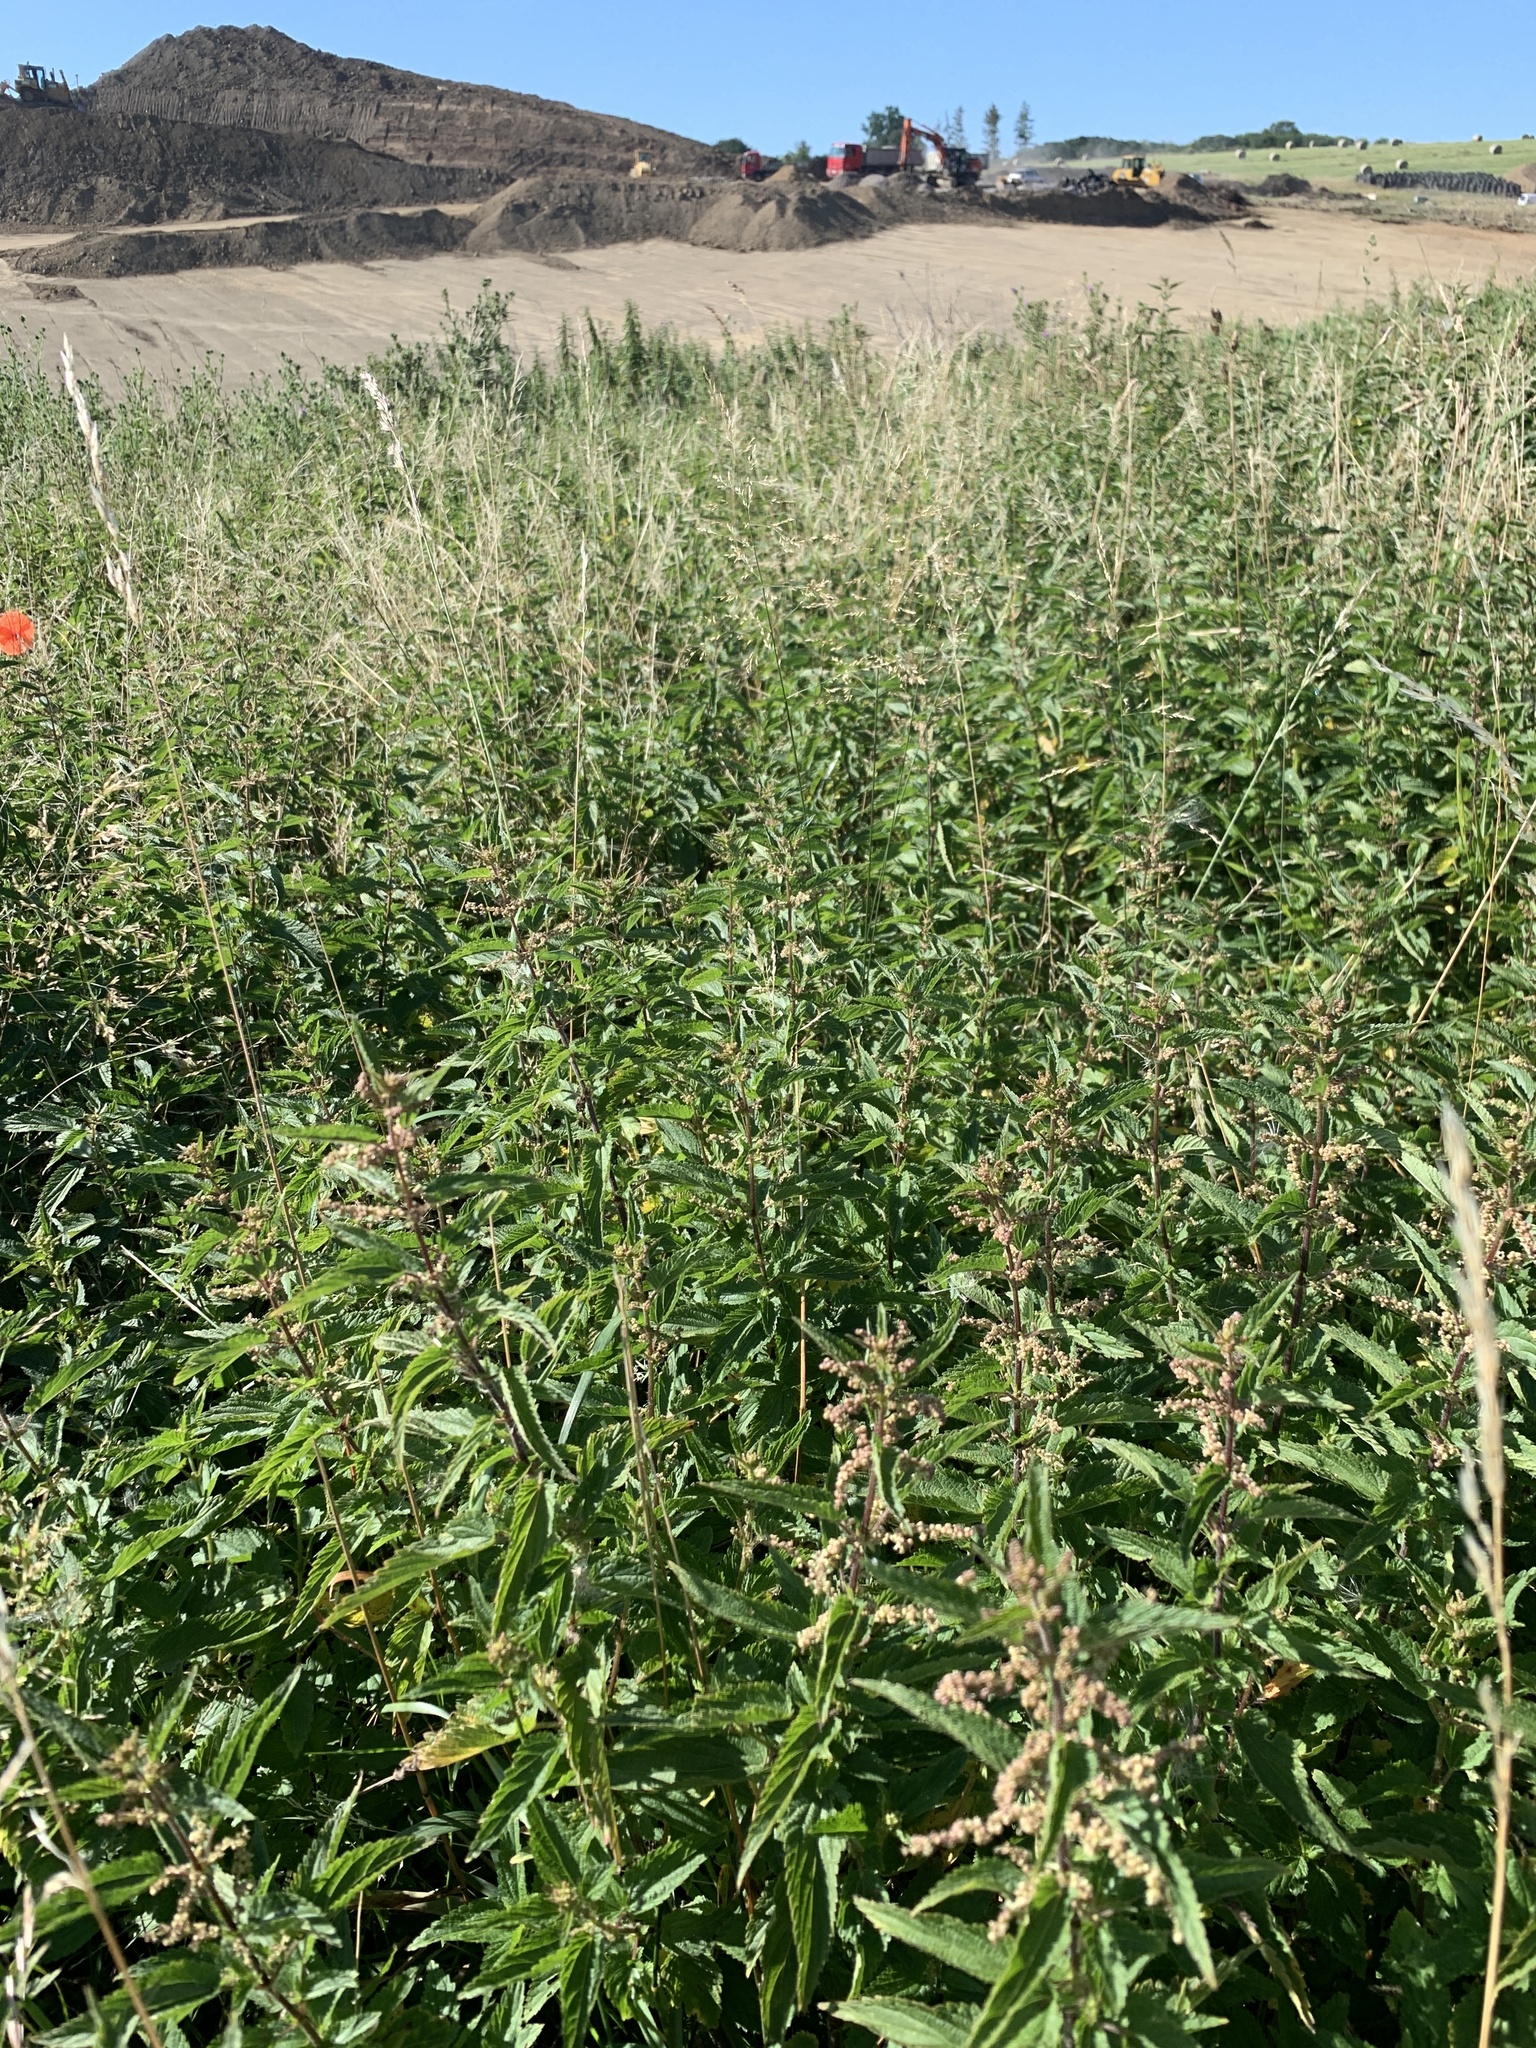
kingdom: Plantae
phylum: Tracheophyta
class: Magnoliopsida
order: Rosales
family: Urticaceae
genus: Urtica
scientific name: Urtica dioica
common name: Common nettle
